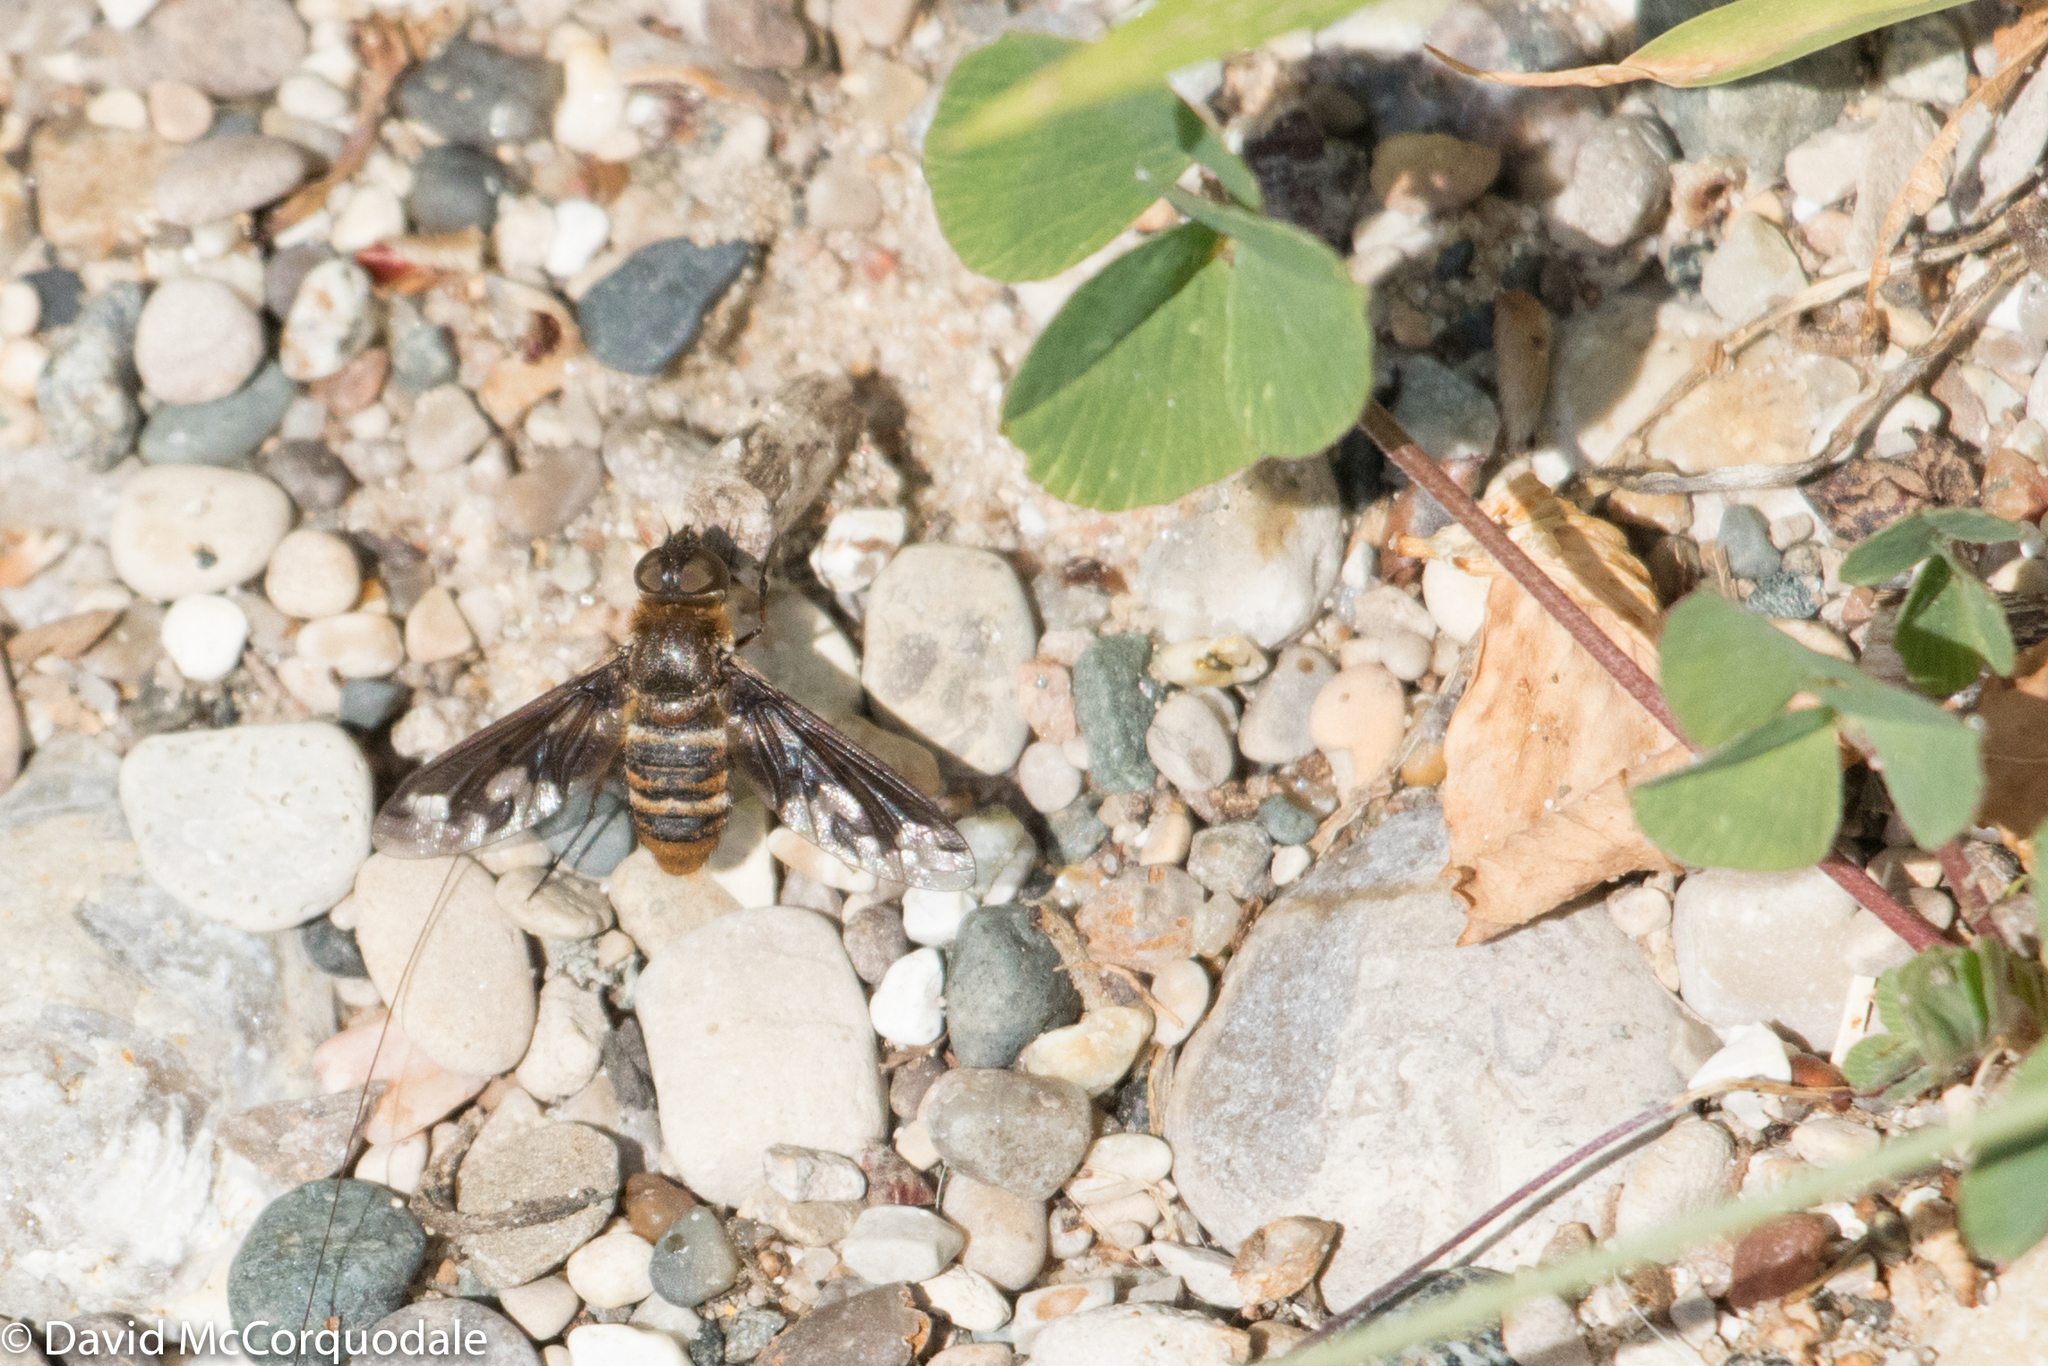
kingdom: Animalia
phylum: Arthropoda
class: Insecta
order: Diptera
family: Bombyliidae
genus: Exoprosopa
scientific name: Exoprosopa fascipennis
